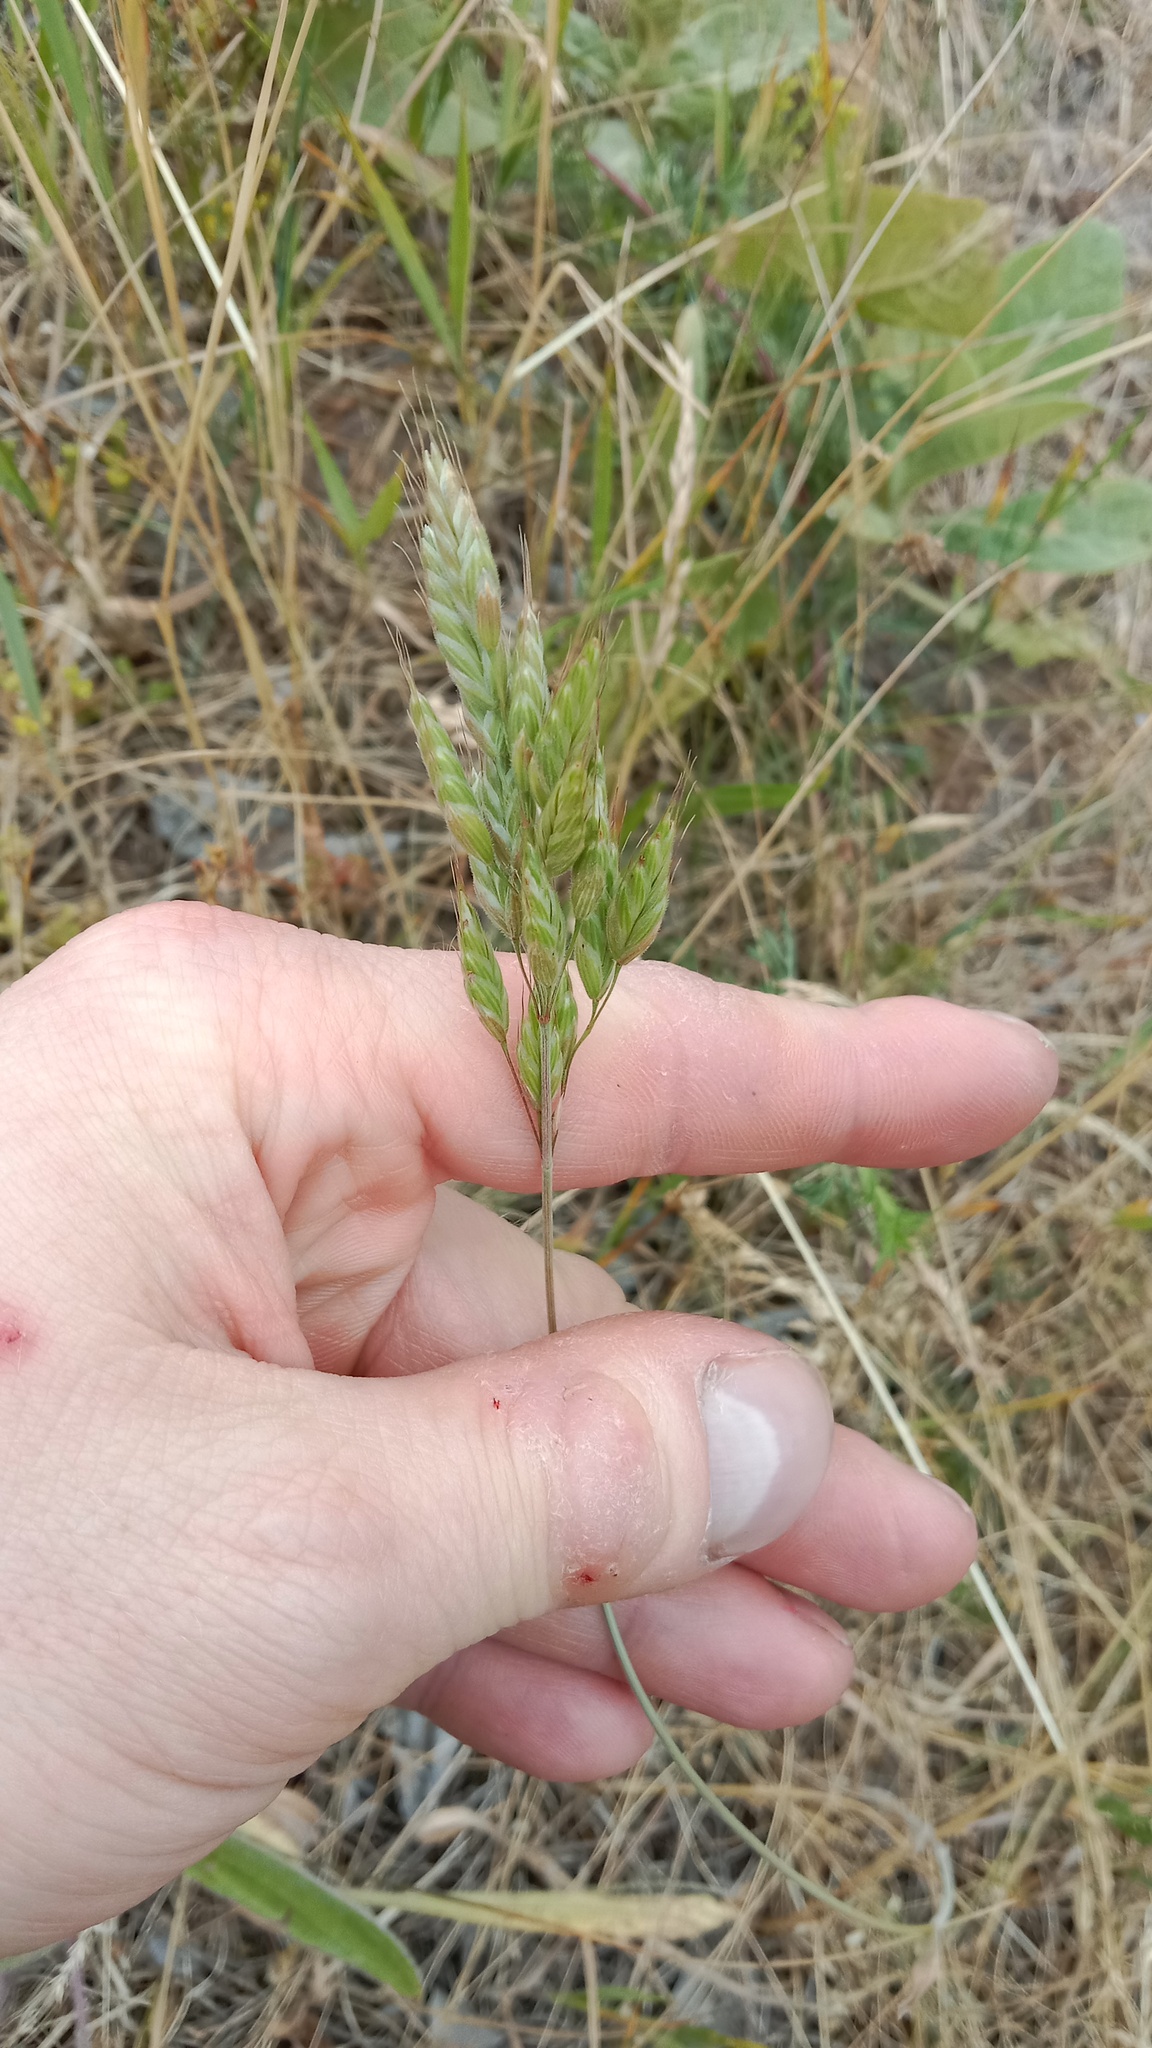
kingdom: Plantae
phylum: Tracheophyta
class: Liliopsida
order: Poales
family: Poaceae
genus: Bromus
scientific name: Bromus hordeaceus
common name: Soft brome
